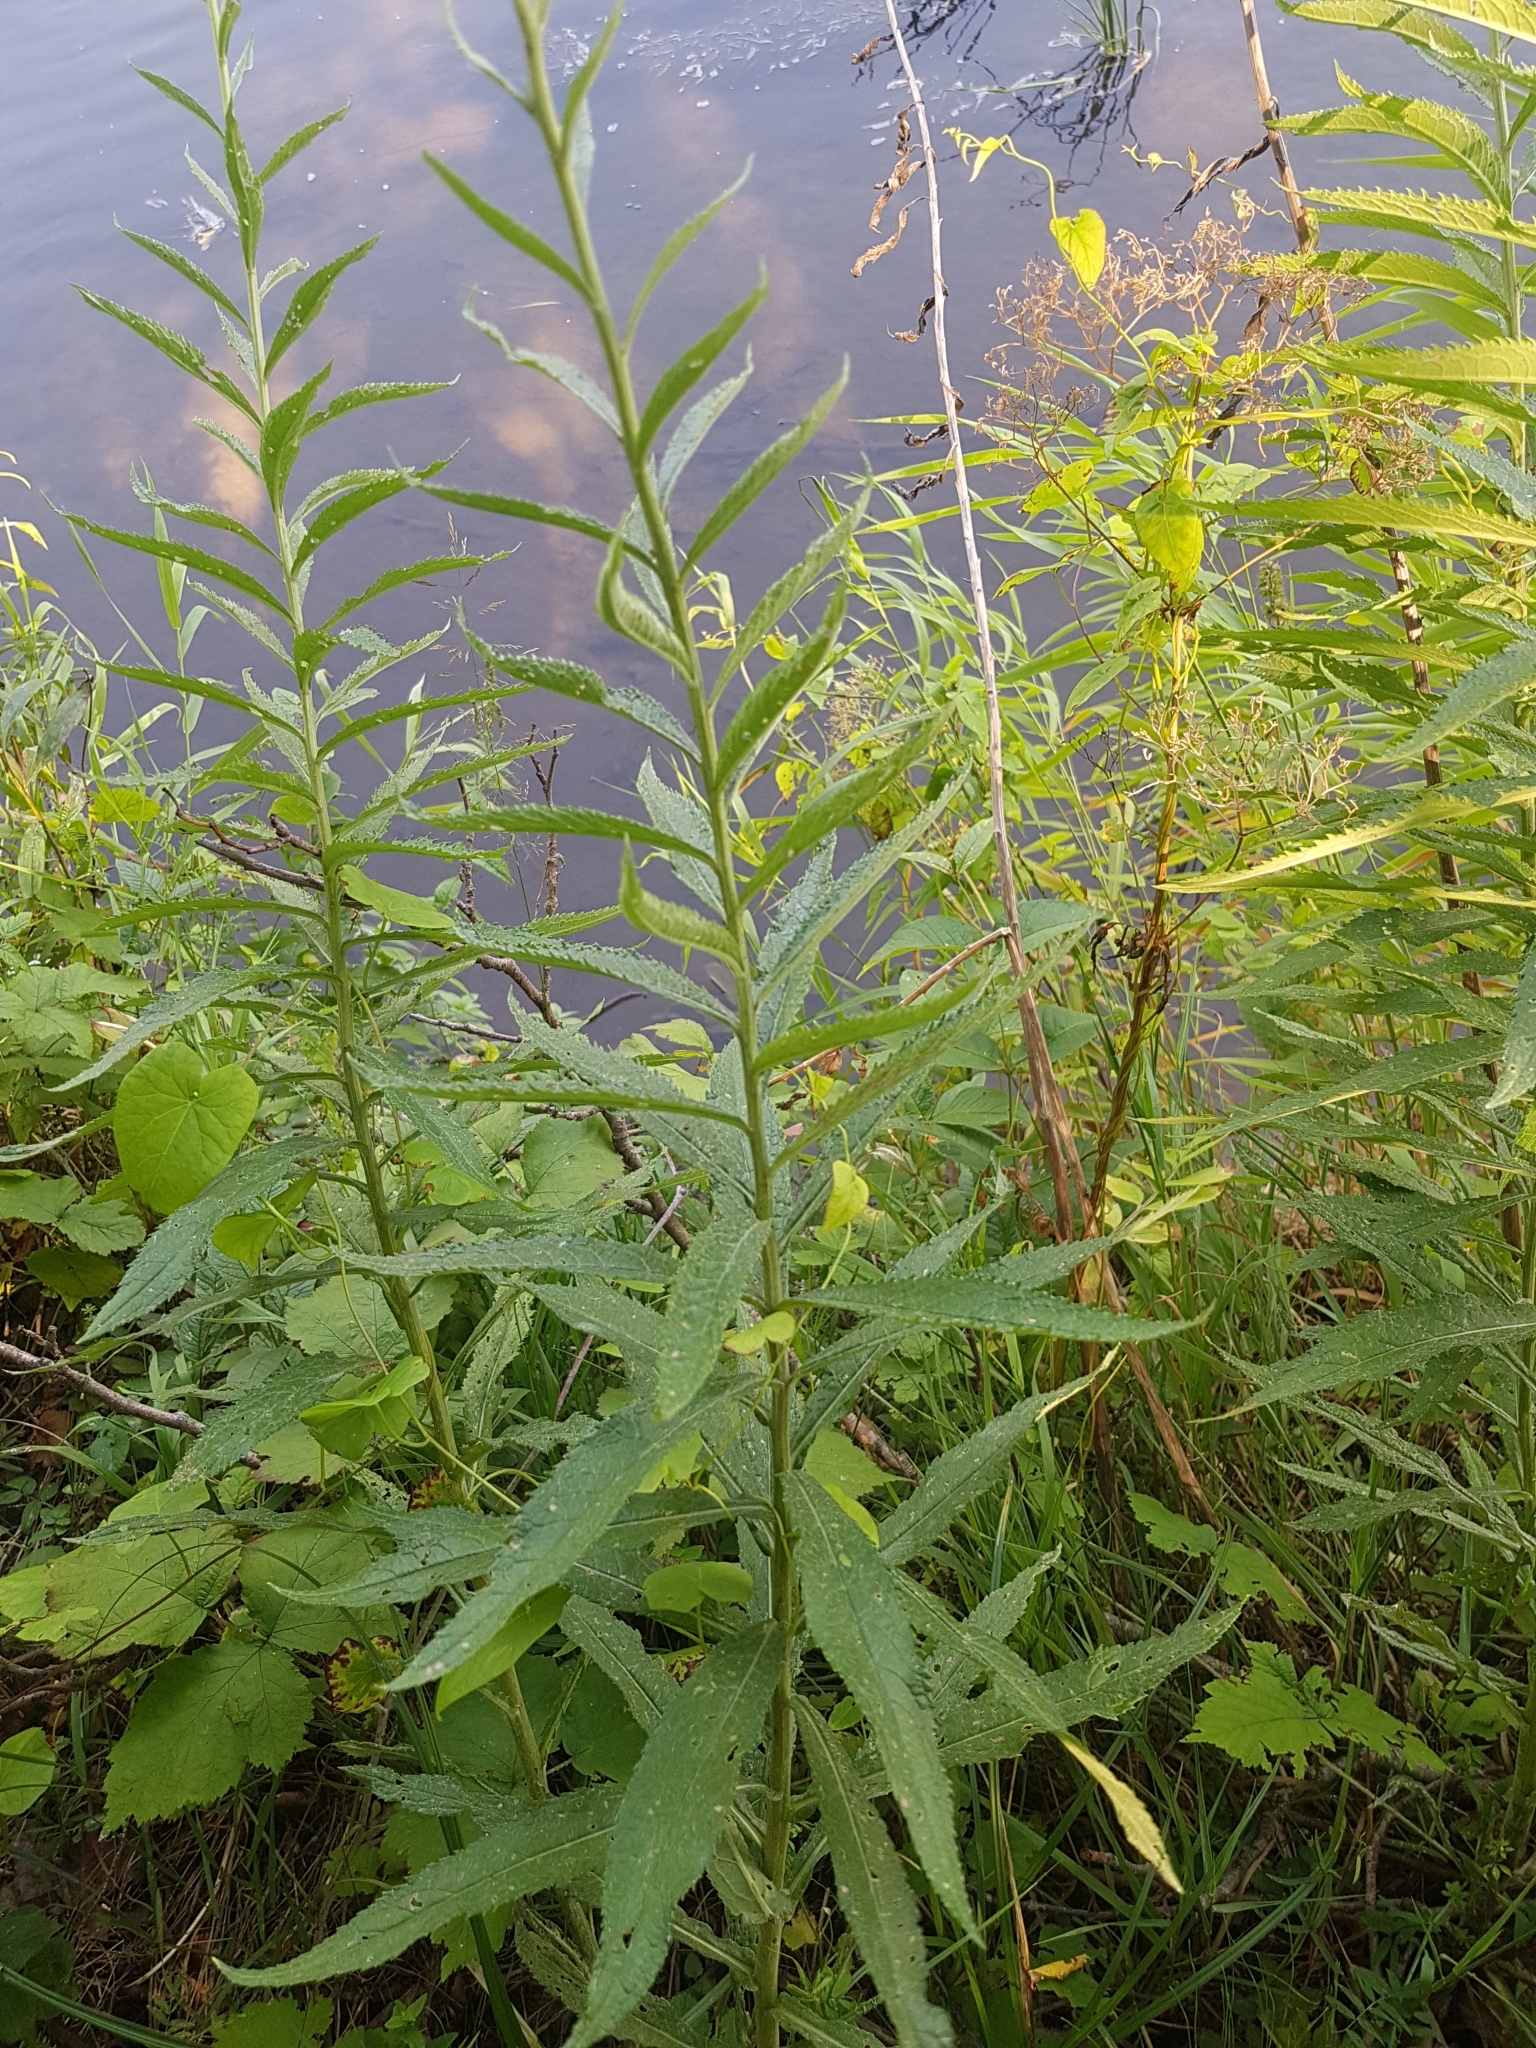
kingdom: Plantae
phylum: Tracheophyta
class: Magnoliopsida
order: Asterales
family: Asteraceae
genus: Jacobaea
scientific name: Jacobaea paludosa
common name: Fen ragwort
